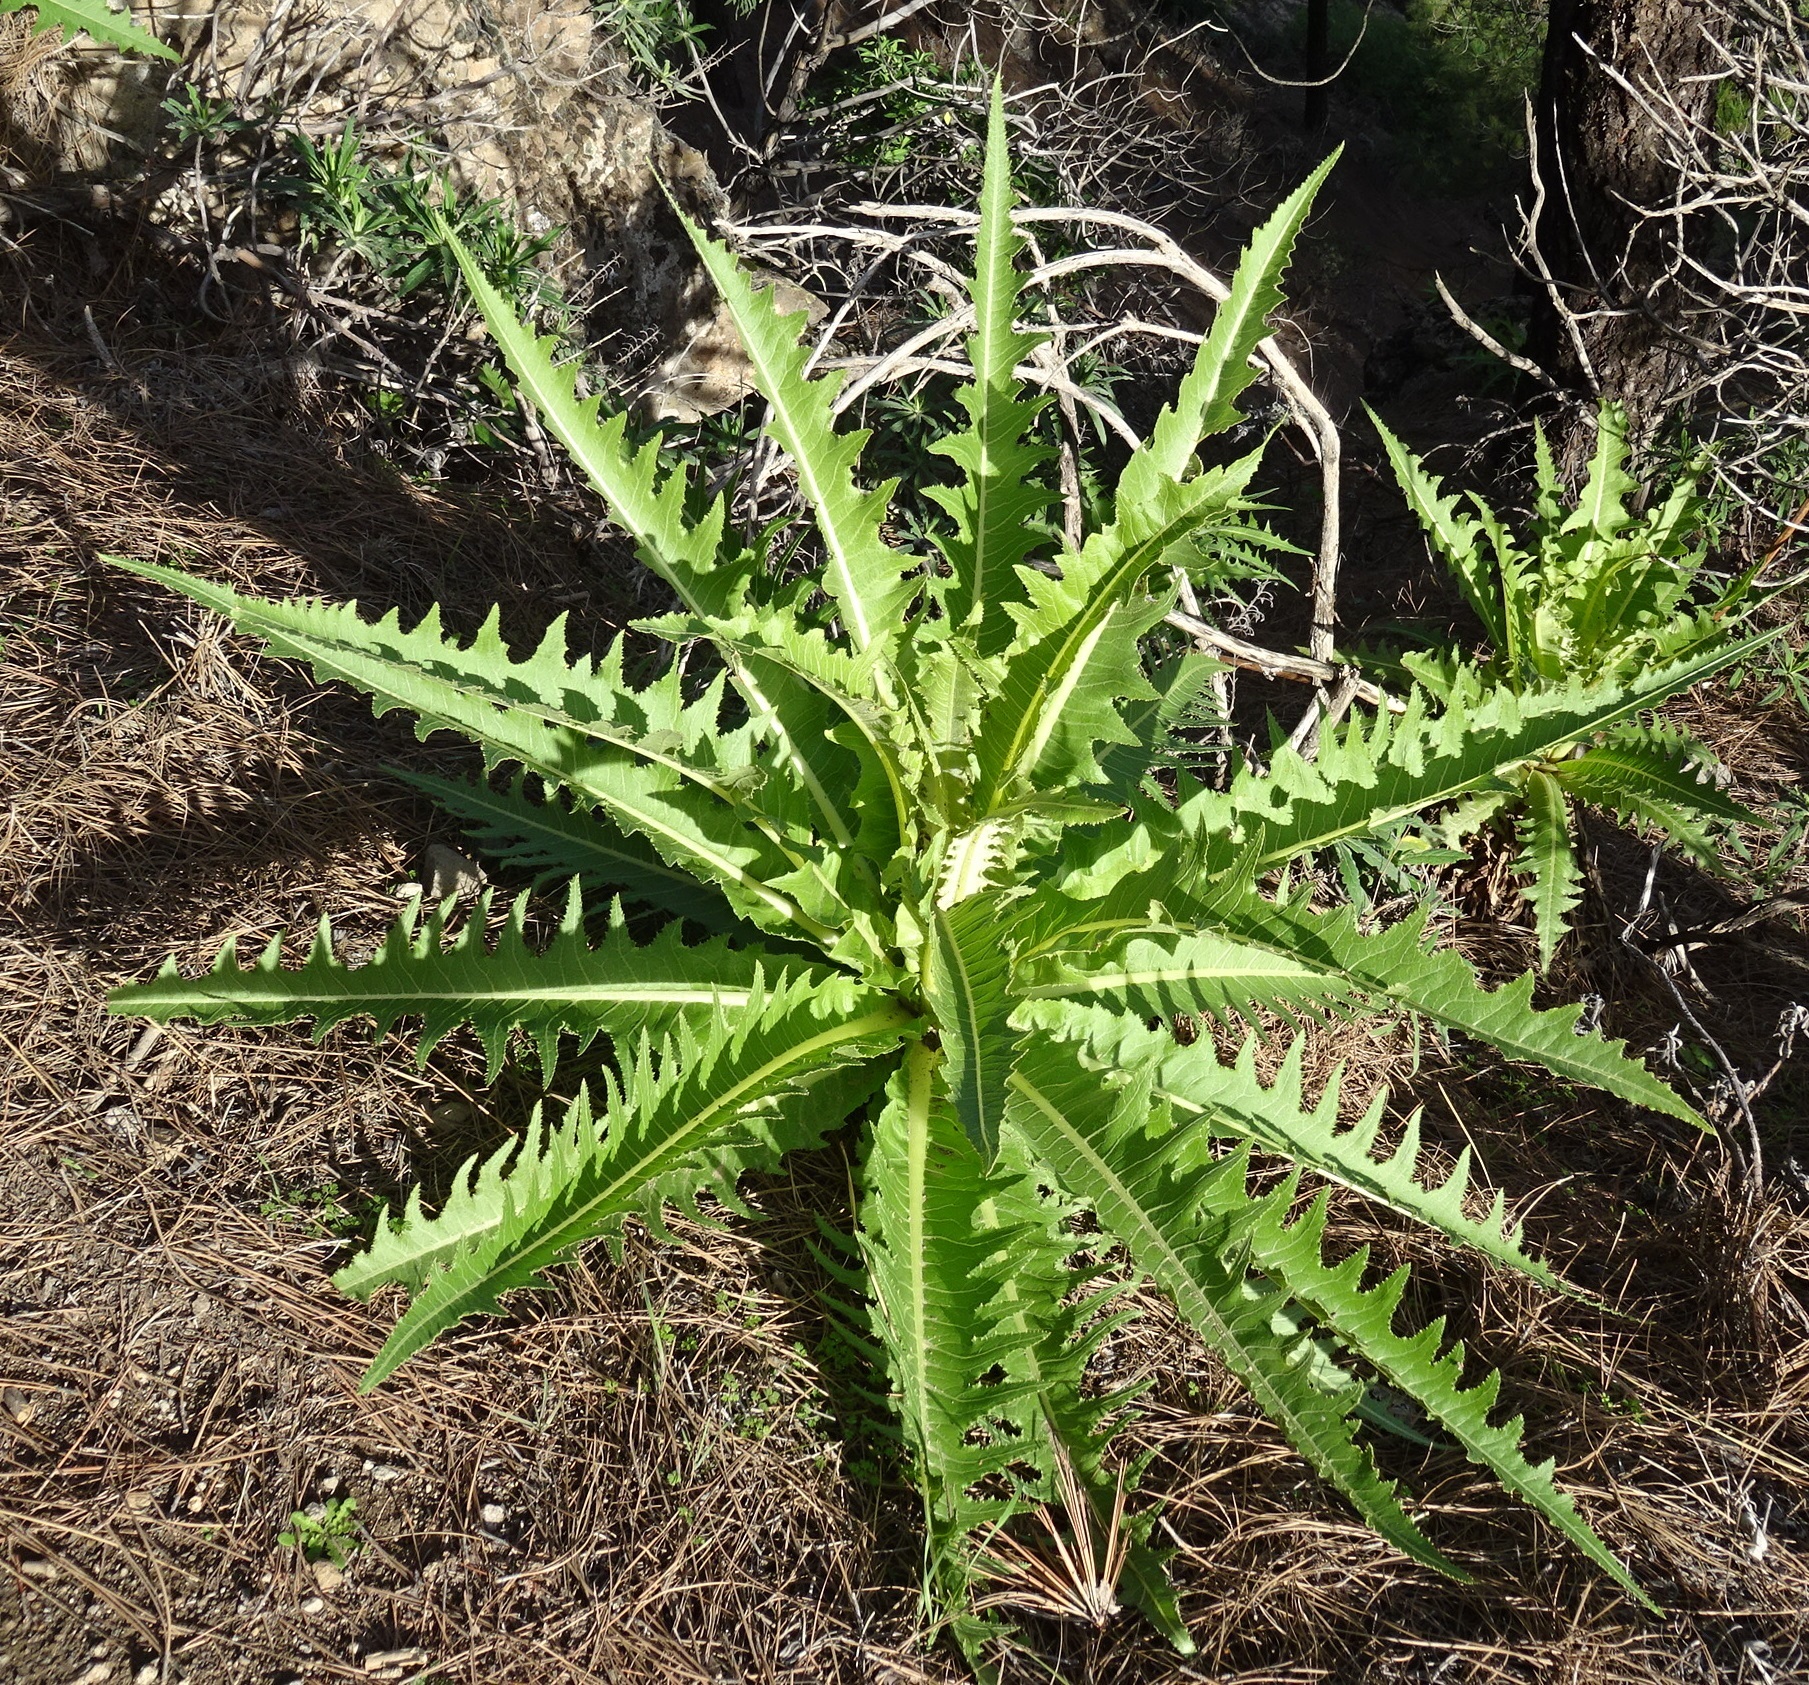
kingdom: Plantae
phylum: Tracheophyta
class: Magnoliopsida
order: Asterales
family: Asteraceae
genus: Sonchus
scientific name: Sonchus acaulis
